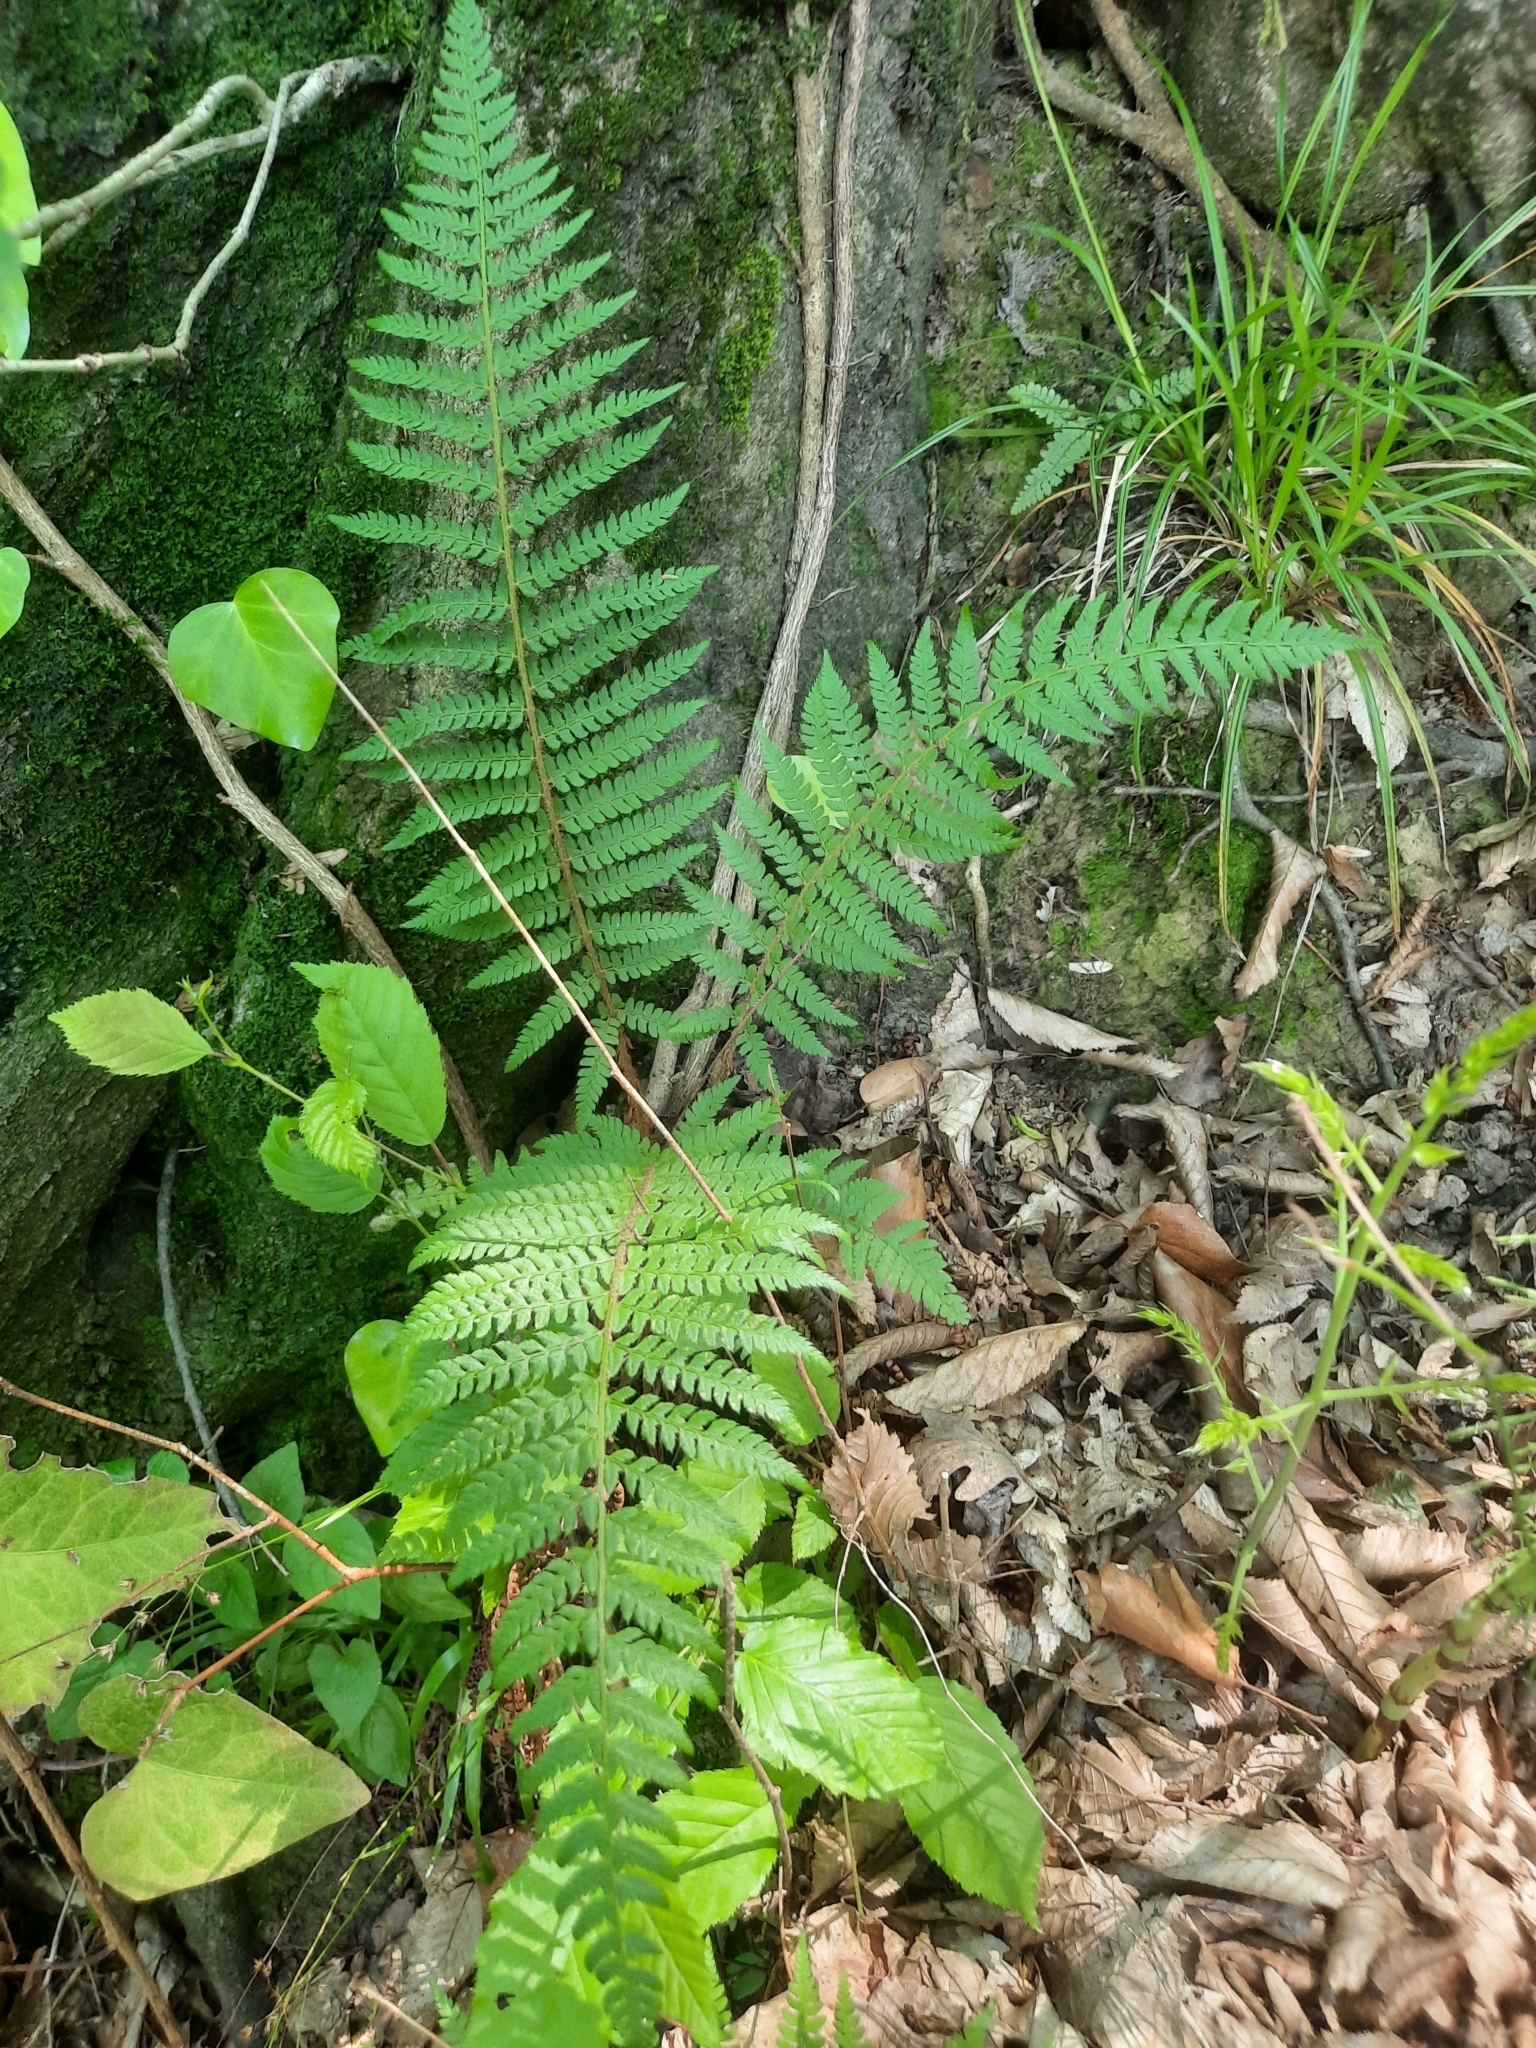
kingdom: Plantae
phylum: Tracheophyta
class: Polypodiopsida
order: Polypodiales
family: Dryopteridaceae
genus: Polystichum
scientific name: Polystichum setiferum
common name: Soft shield-fern
